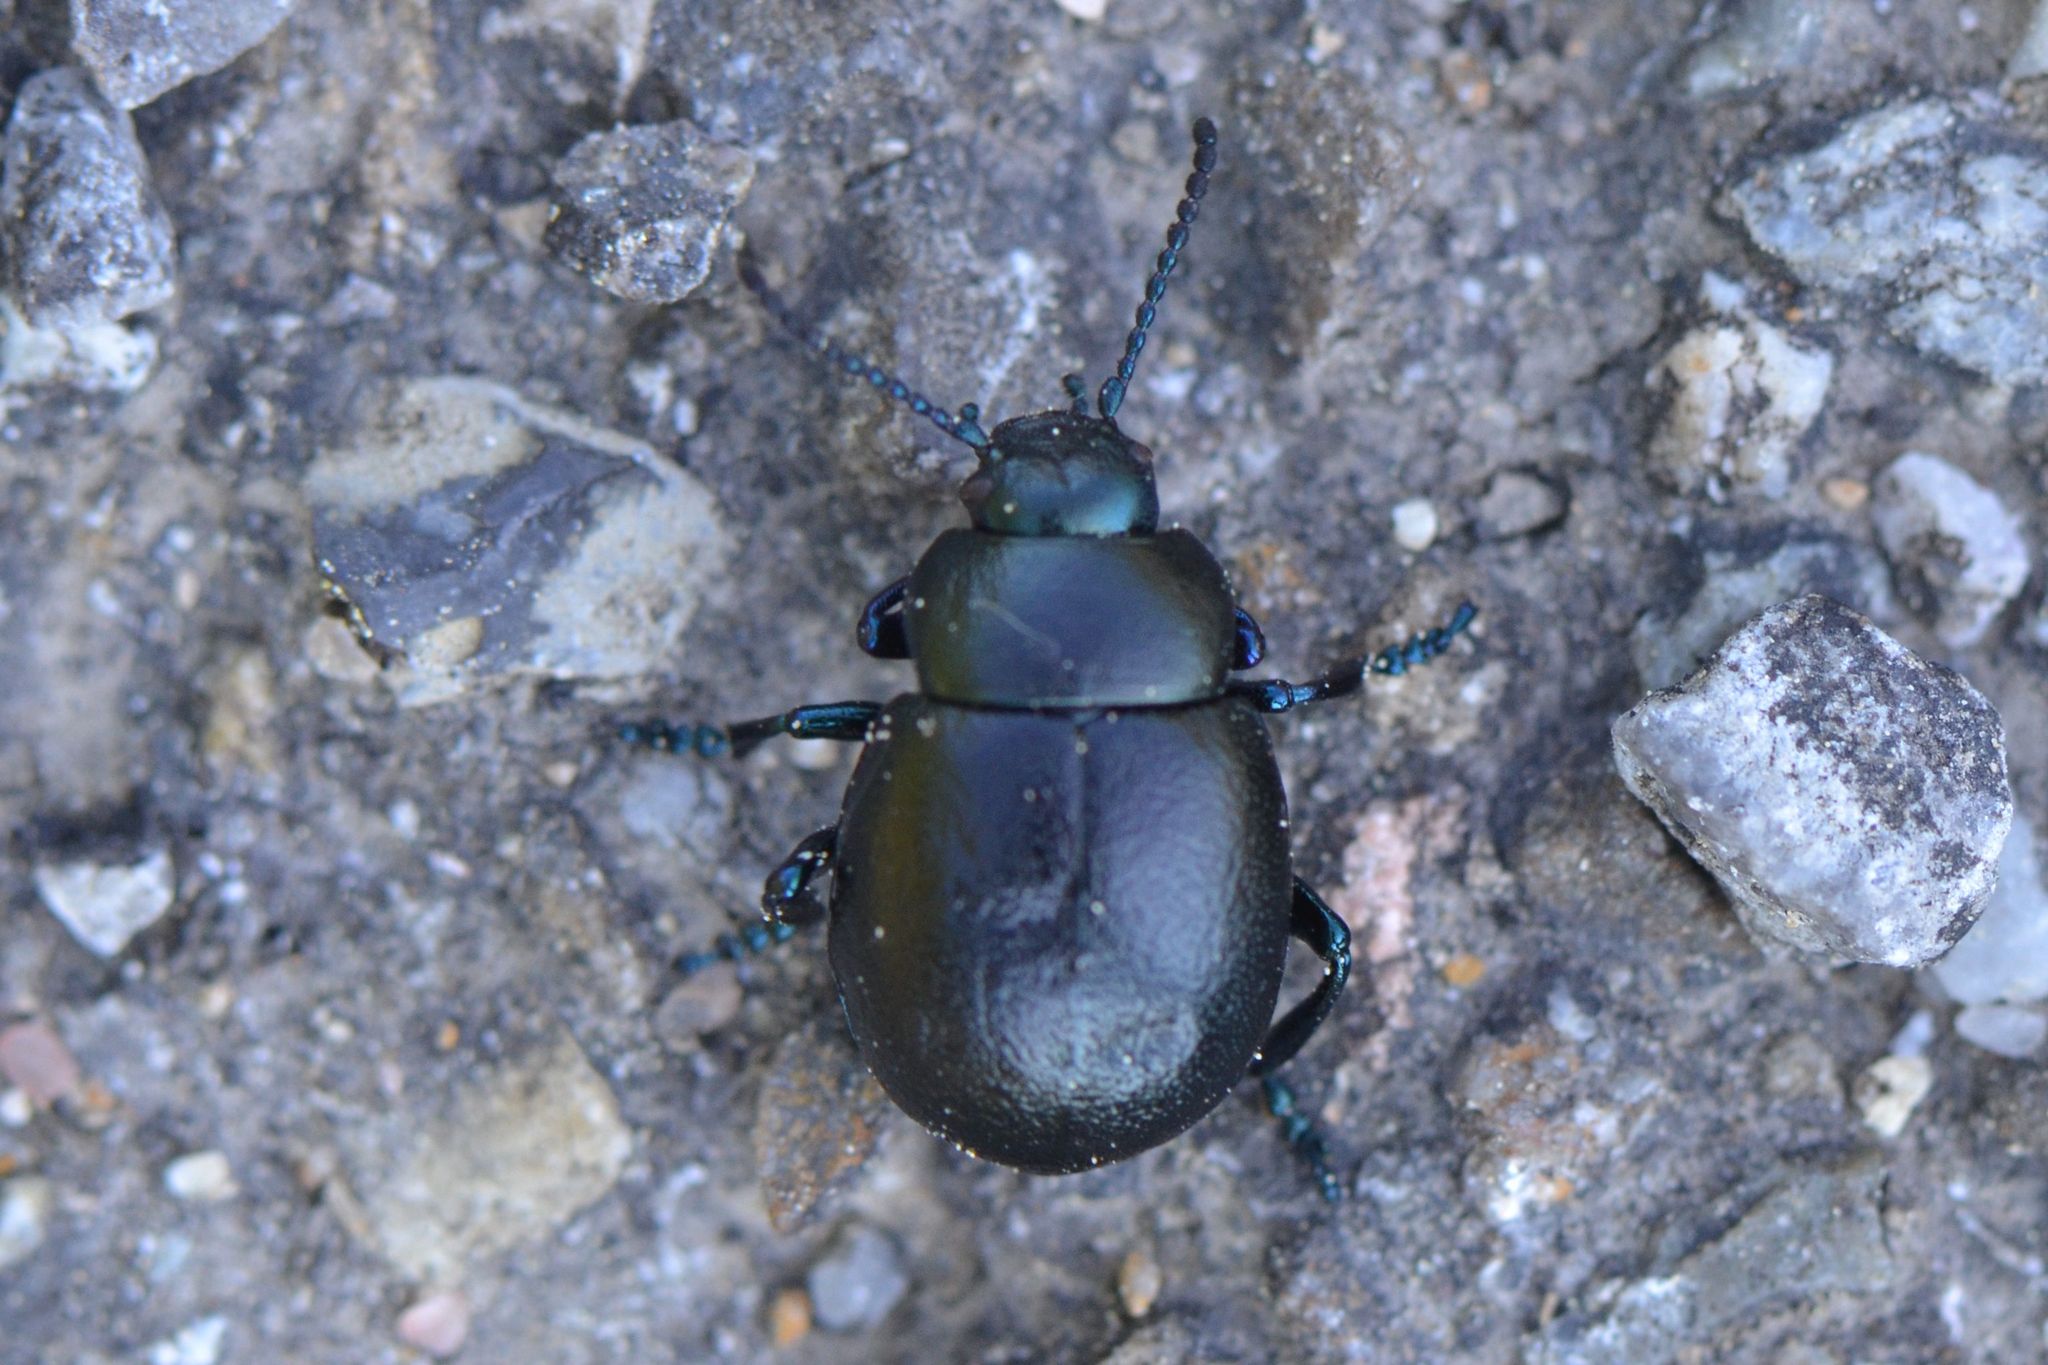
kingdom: Animalia
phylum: Arthropoda
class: Insecta
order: Coleoptera
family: Chrysomelidae
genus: Timarcha
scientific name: Timarcha goettingensis
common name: Small bloody-nosed beetle
